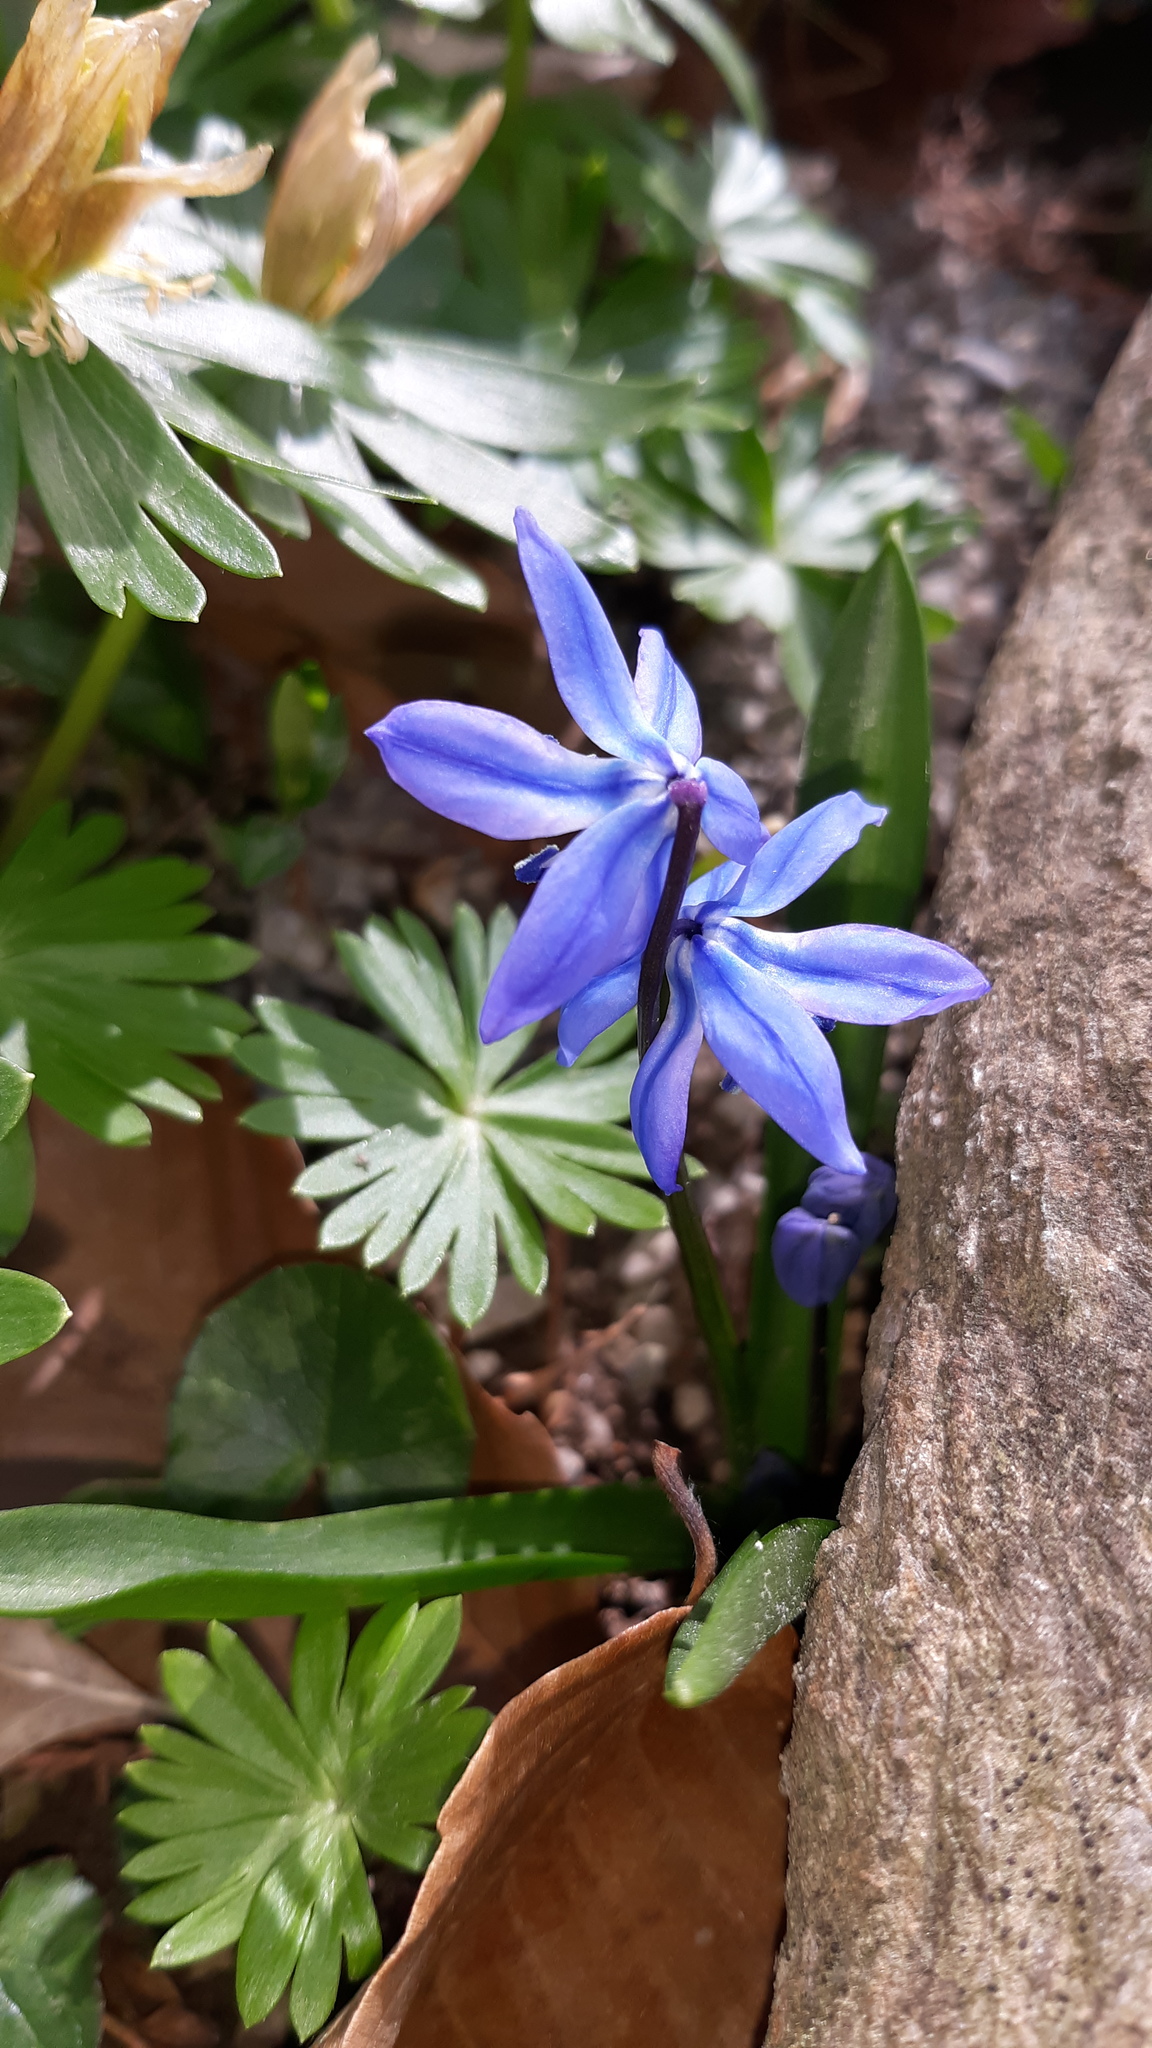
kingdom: Plantae
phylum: Tracheophyta
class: Liliopsida
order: Asparagales
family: Asparagaceae
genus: Scilla
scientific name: Scilla siberica
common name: Siberian squill
